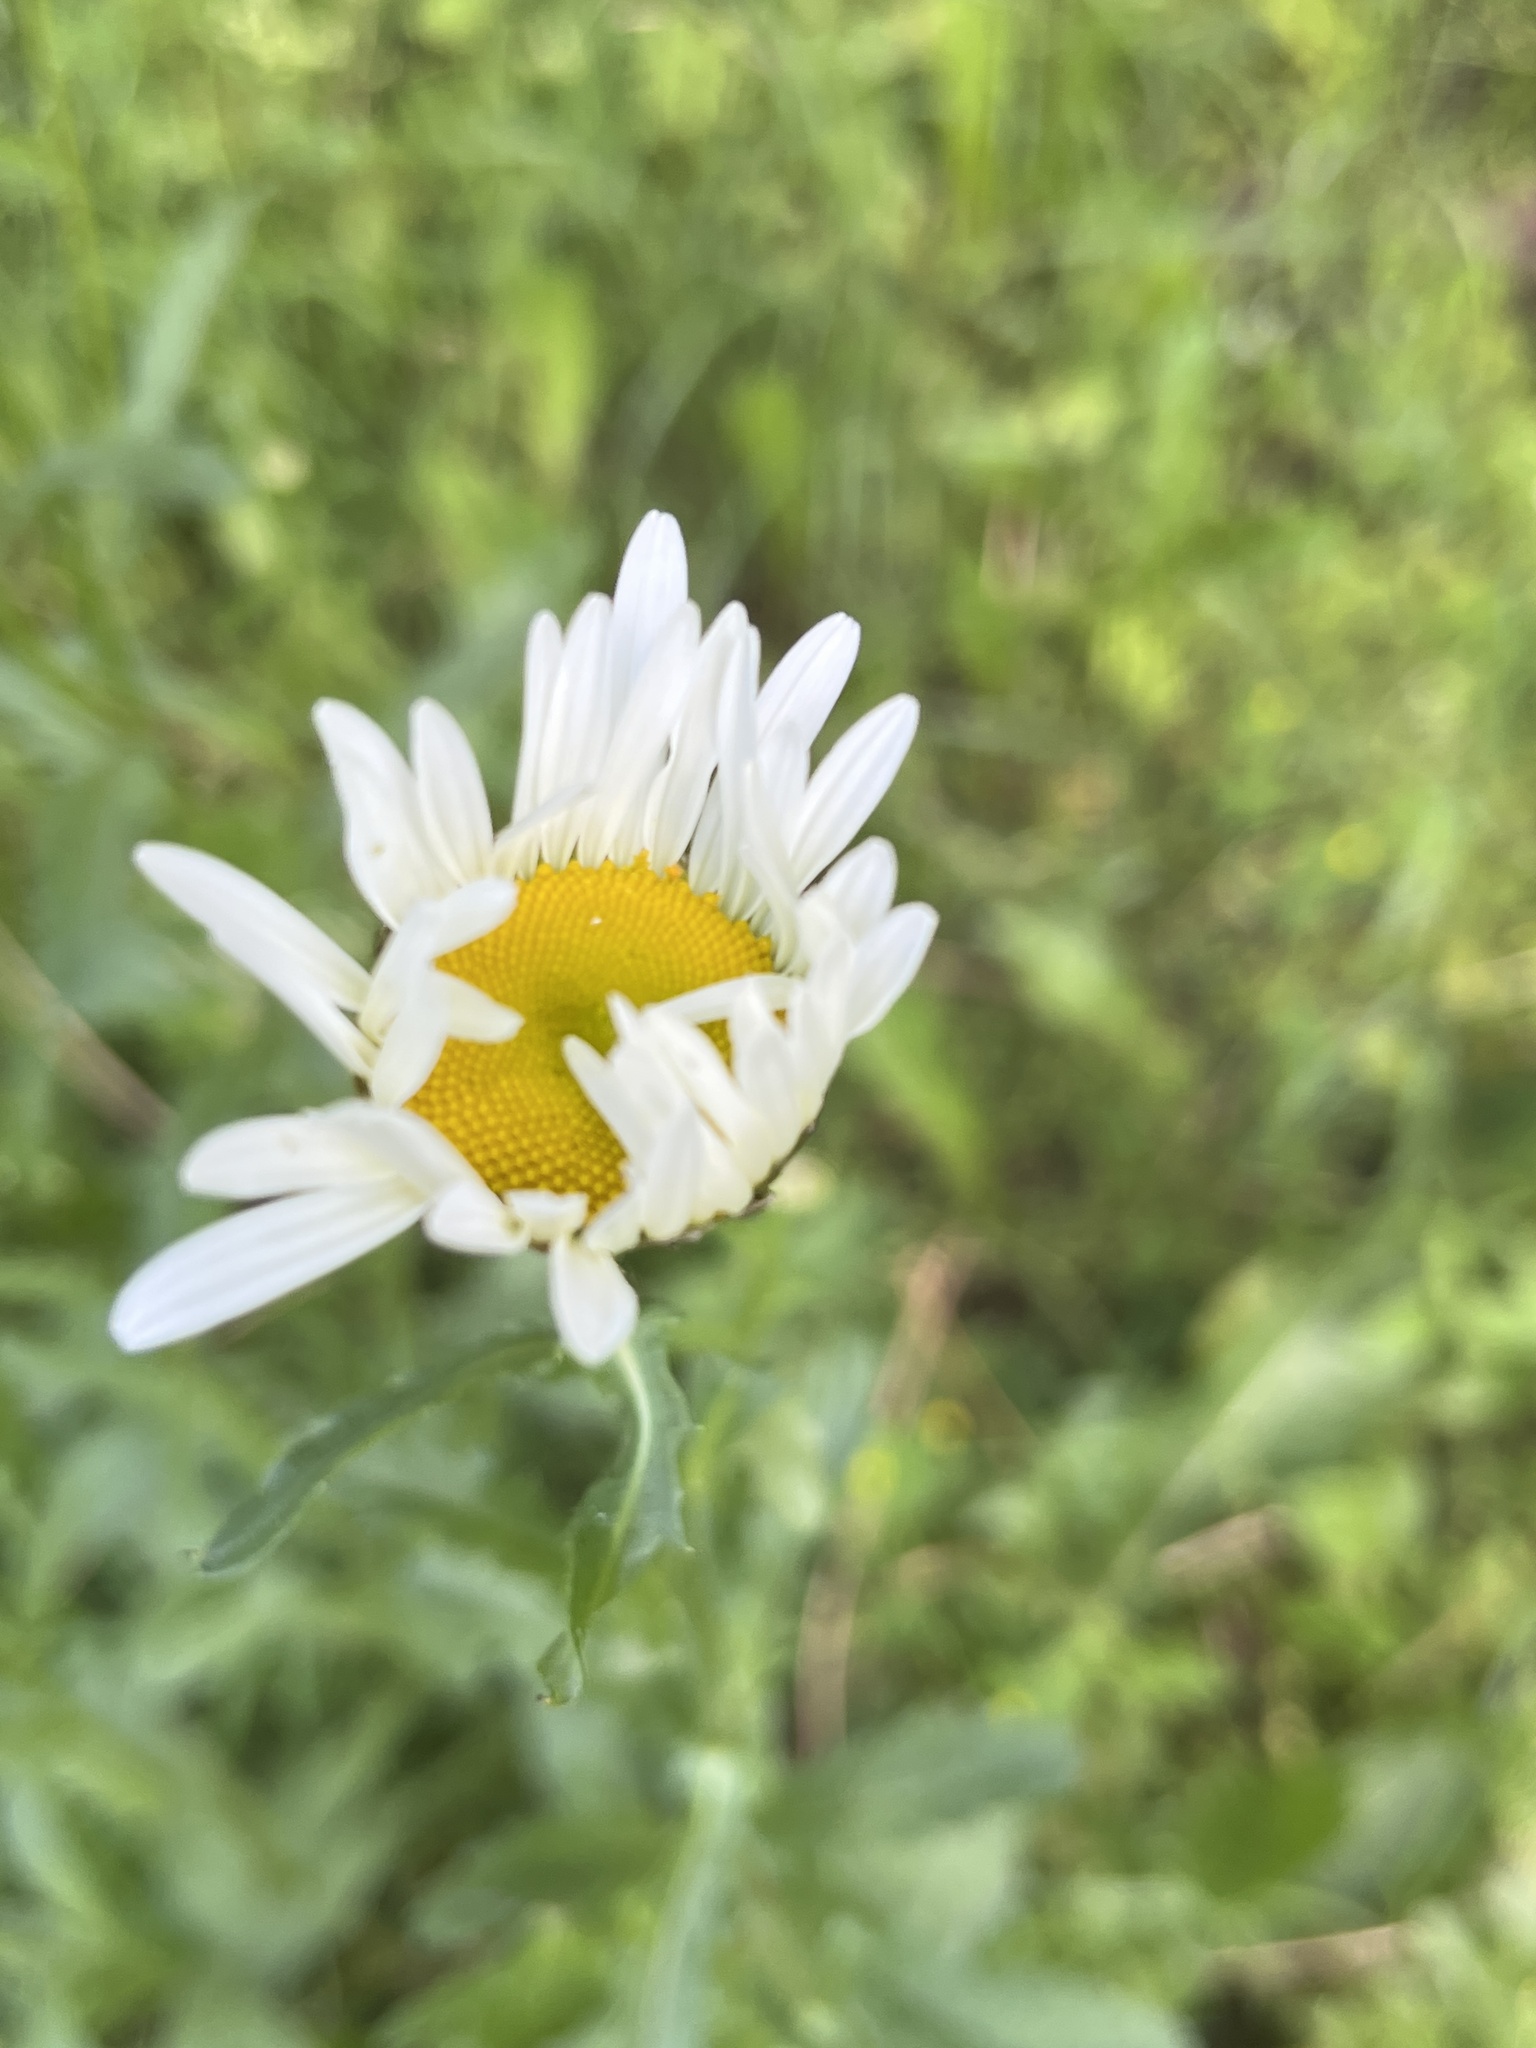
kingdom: Plantae
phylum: Tracheophyta
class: Magnoliopsida
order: Asterales
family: Asteraceae
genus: Leucanthemum
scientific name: Leucanthemum vulgare
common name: Oxeye daisy
